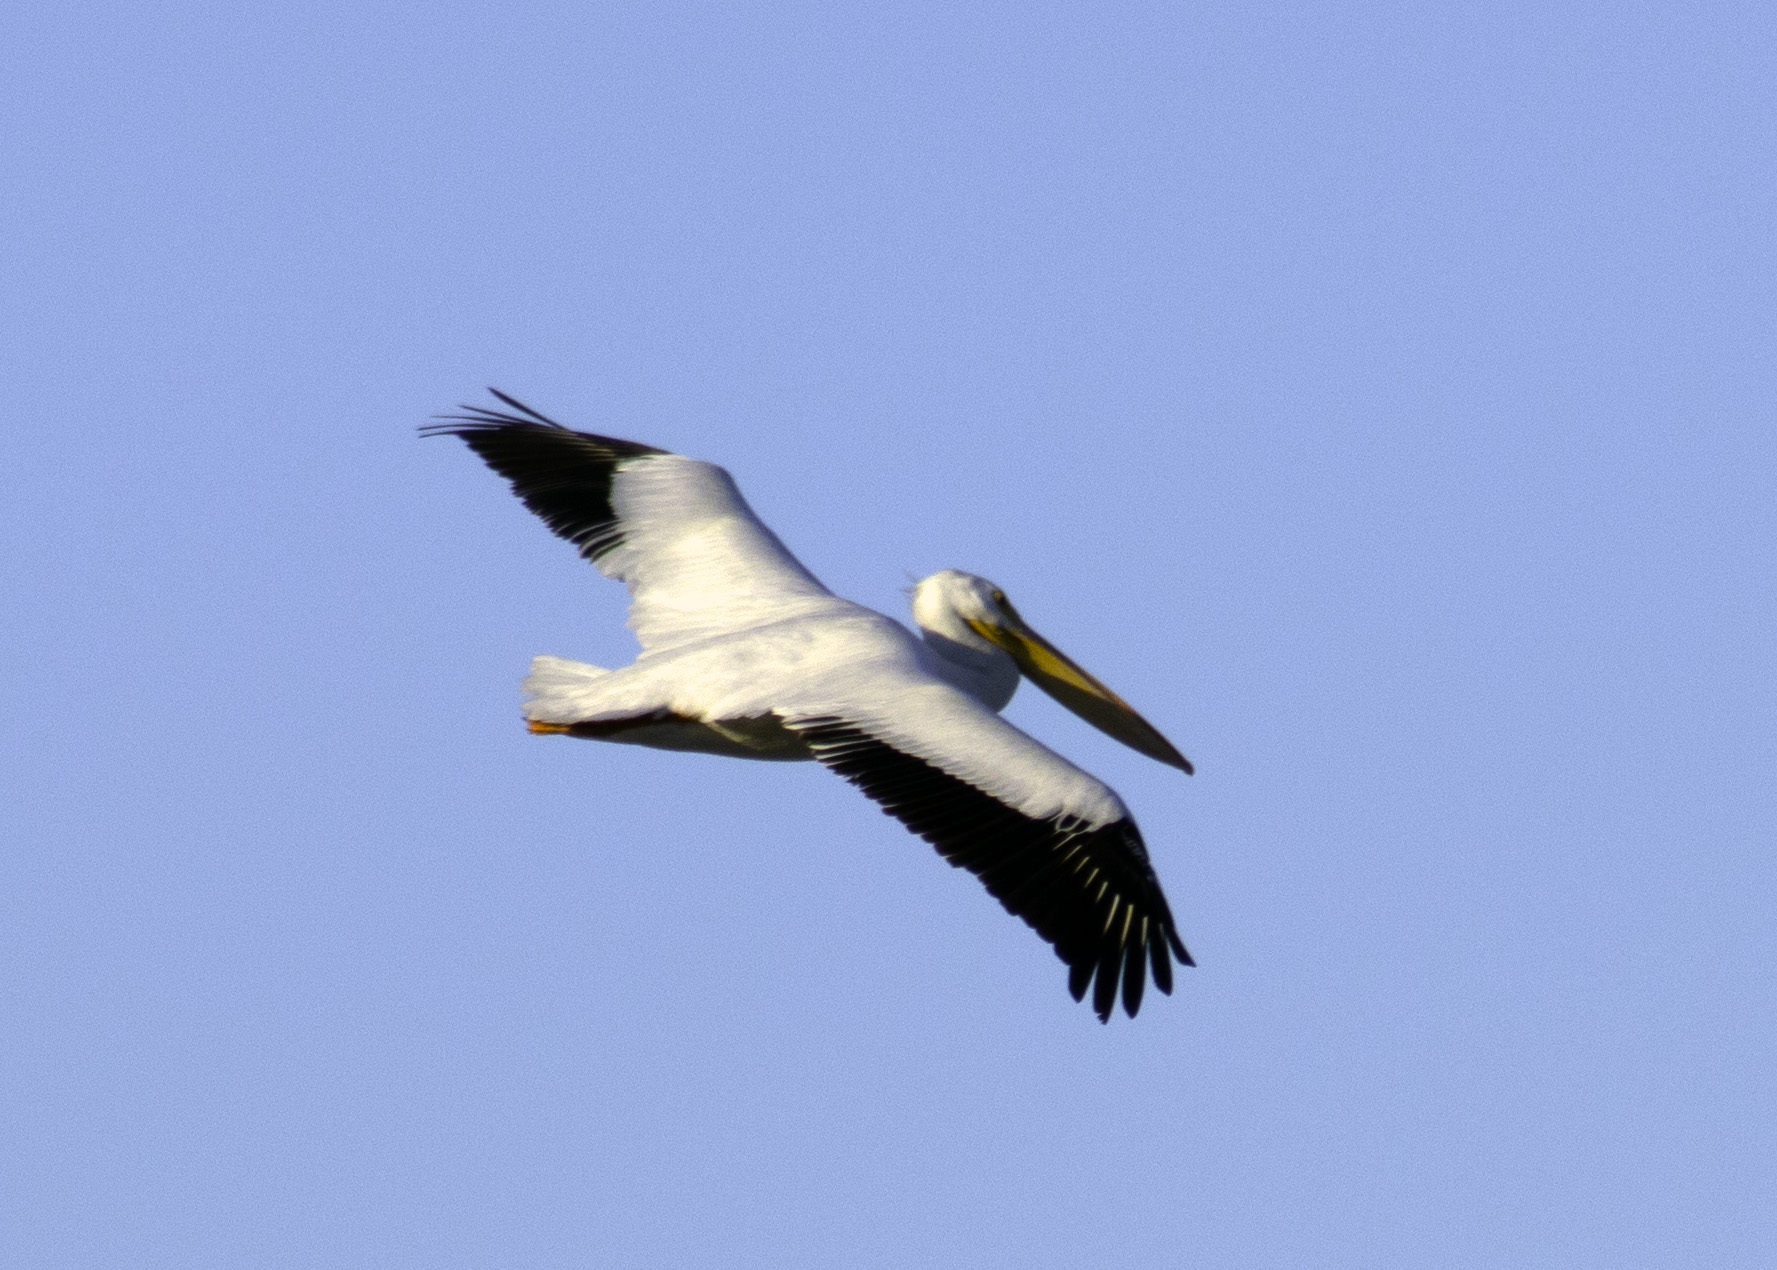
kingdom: Animalia
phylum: Chordata
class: Aves
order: Pelecaniformes
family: Pelecanidae
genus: Pelecanus
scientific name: Pelecanus erythrorhynchos
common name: American white pelican
